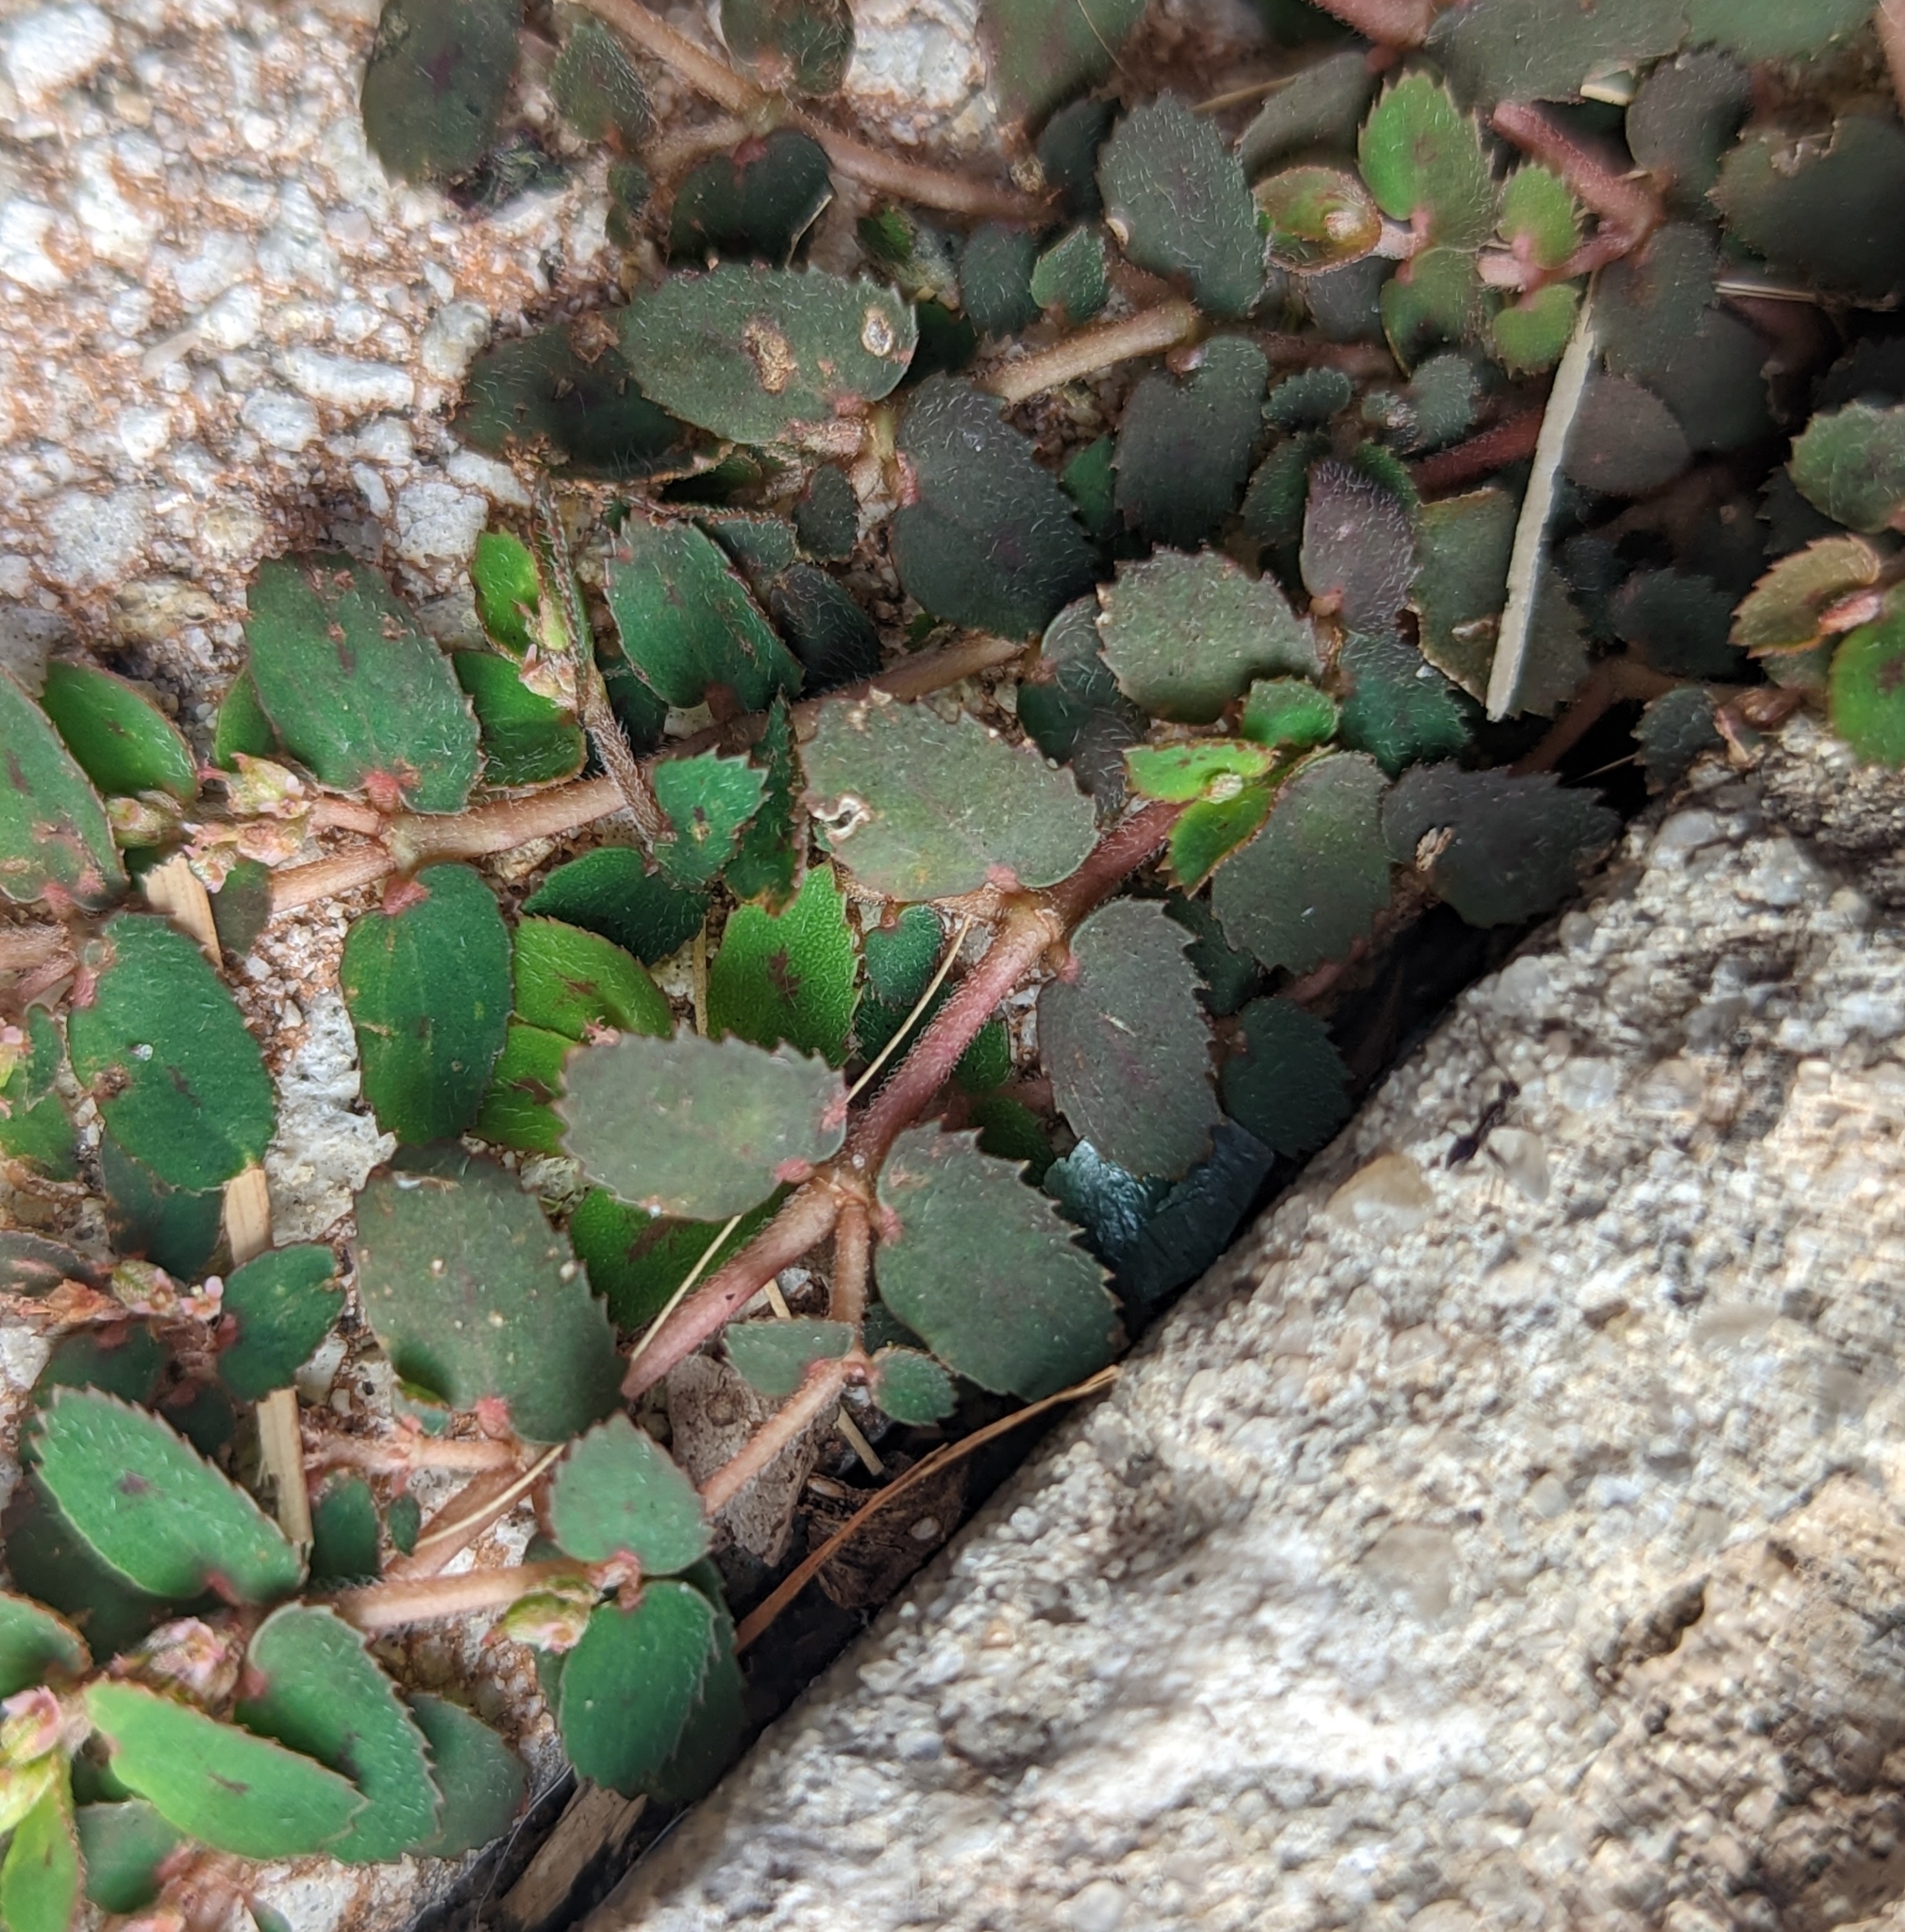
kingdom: Plantae
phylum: Tracheophyta
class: Magnoliopsida
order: Malpighiales
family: Euphorbiaceae
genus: Euphorbia
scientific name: Euphorbia thymifolia
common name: Gulf sandmat
